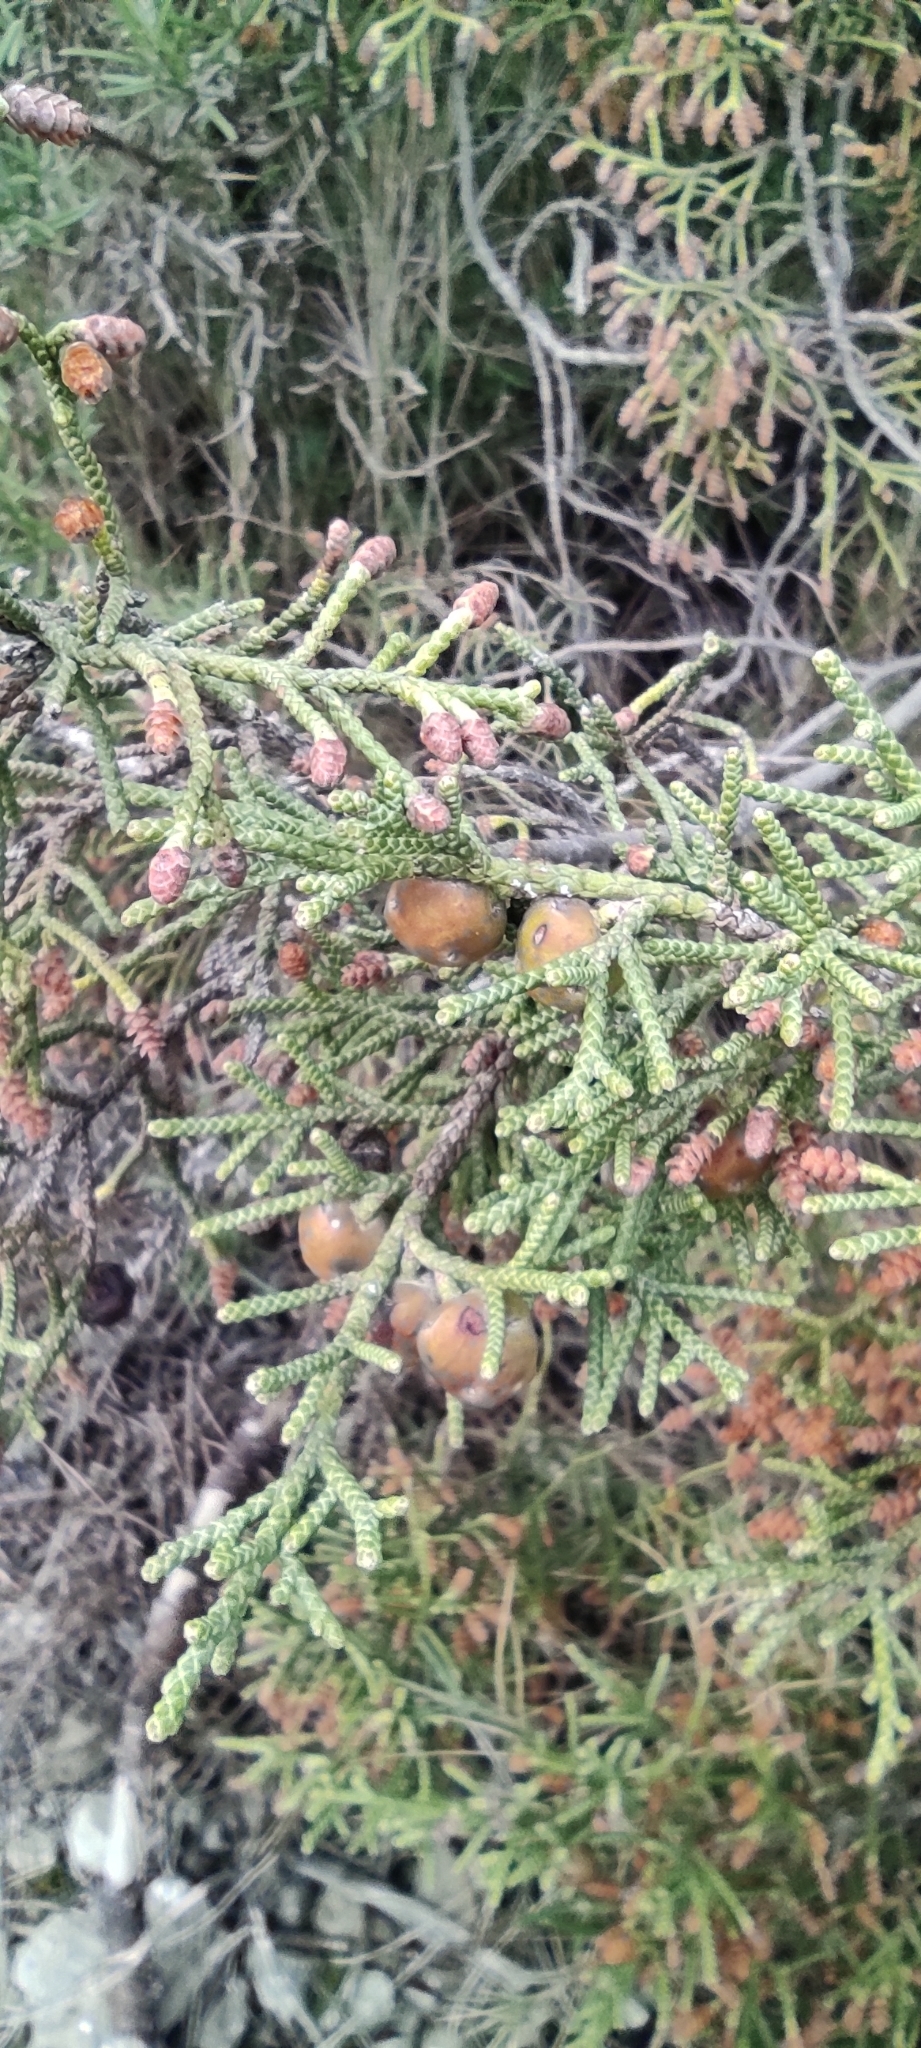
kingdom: Plantae
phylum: Tracheophyta
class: Pinopsida
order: Pinales
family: Cupressaceae
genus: Juniperus
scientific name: Juniperus phoenicea
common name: Phoenician juniper
